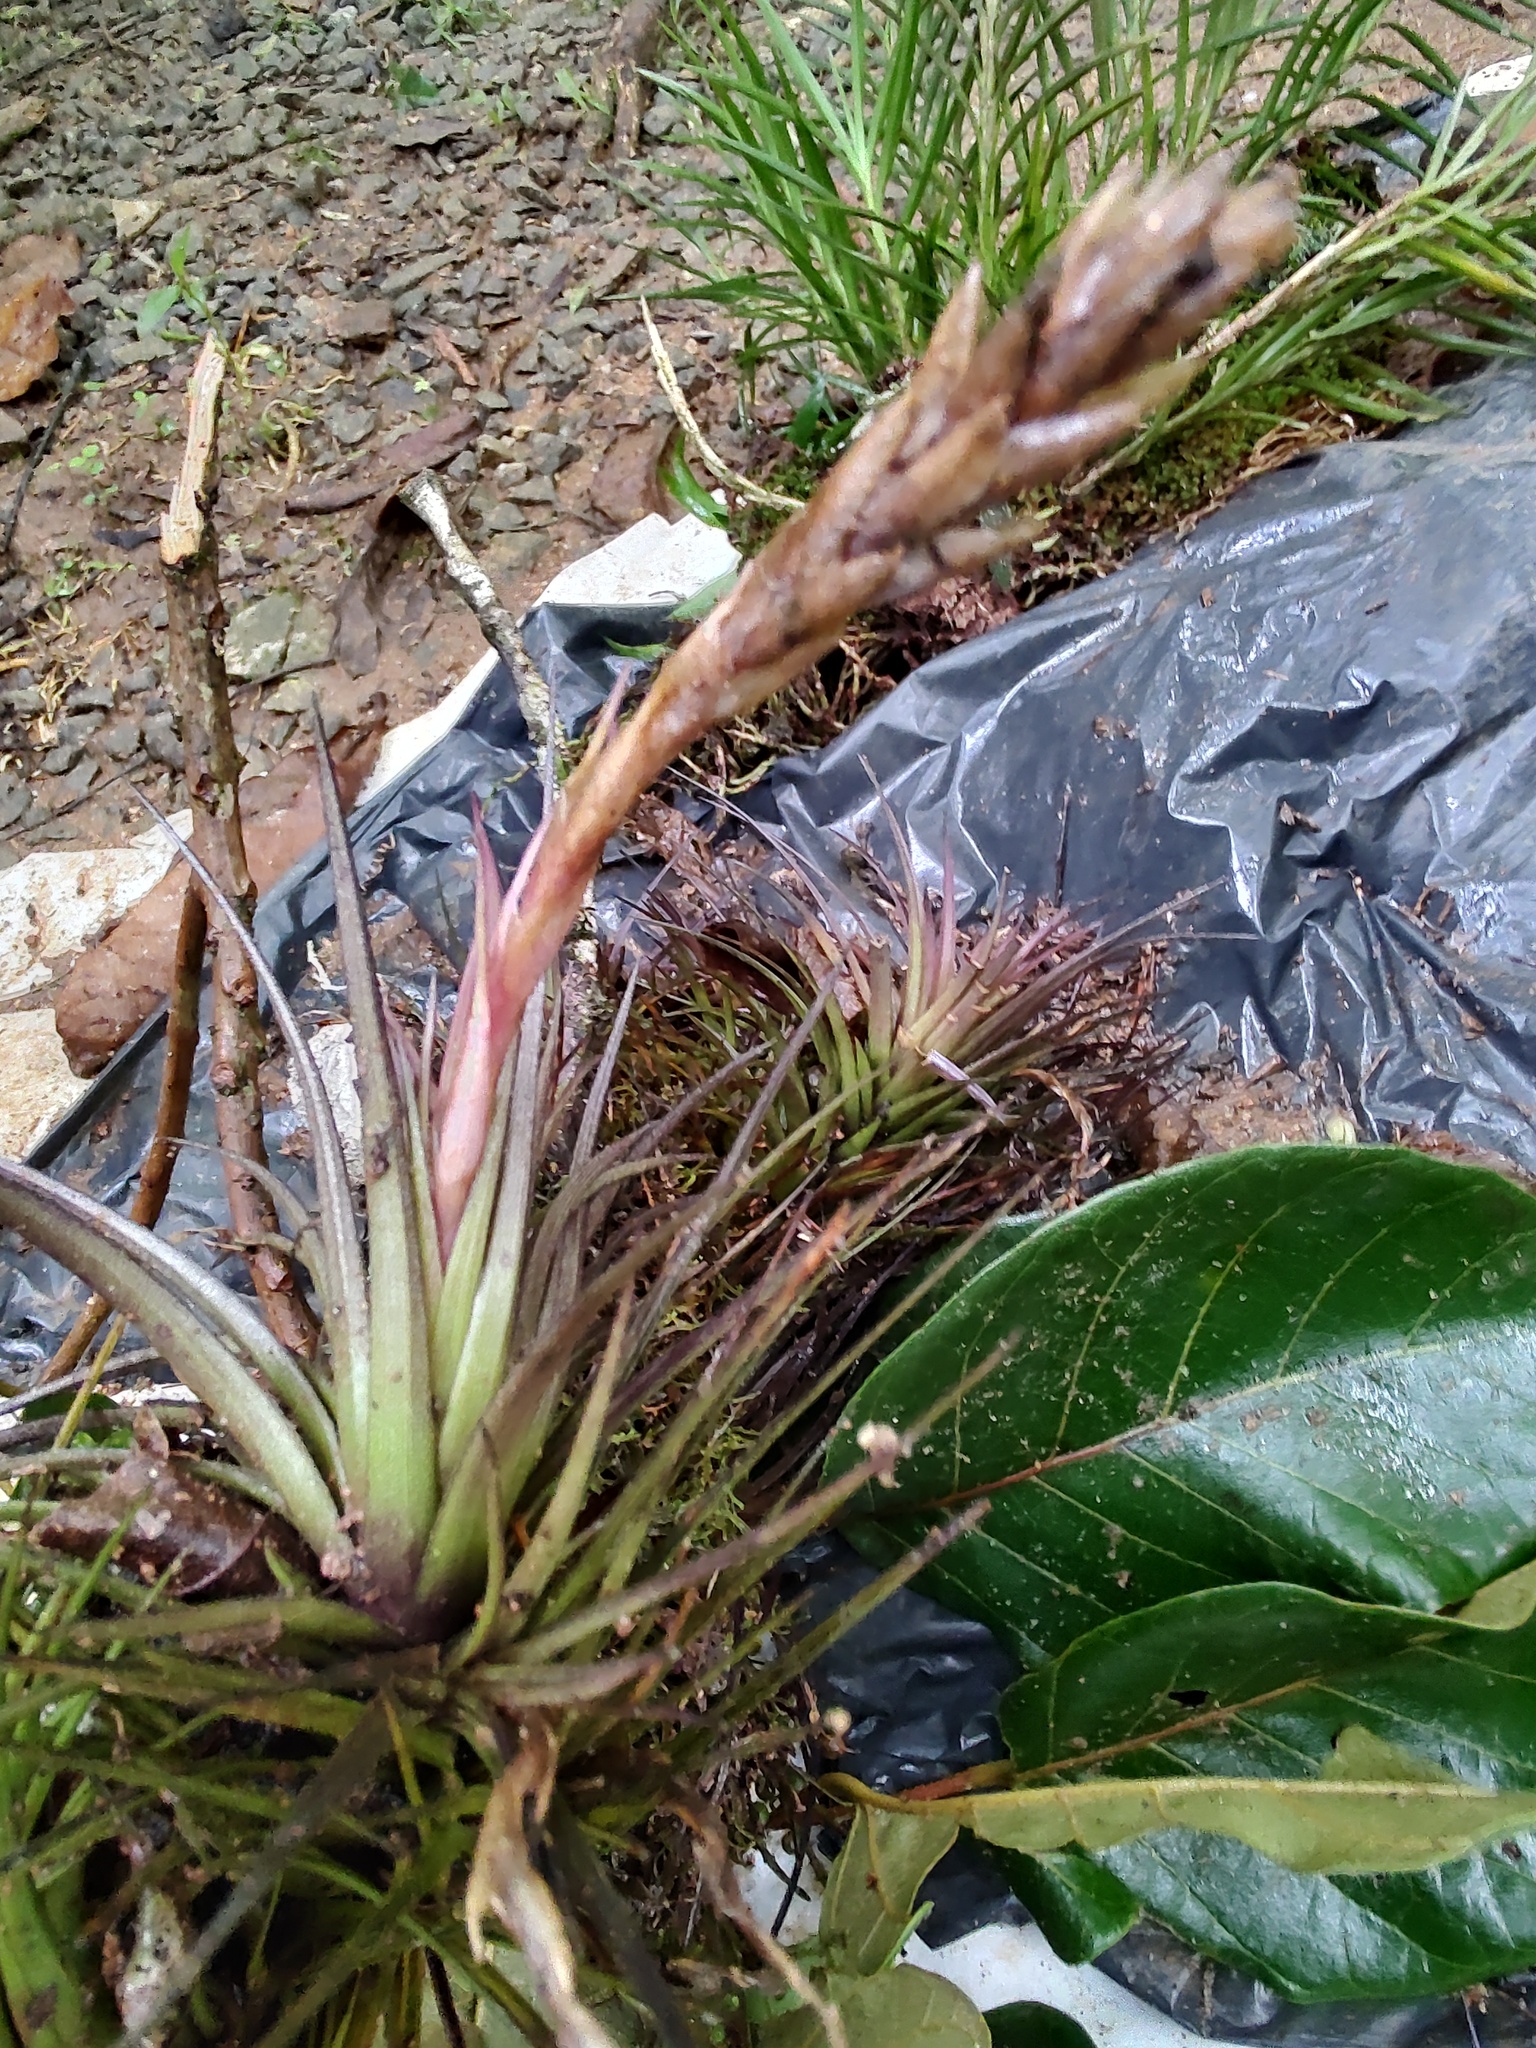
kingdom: Plantae
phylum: Tracheophyta
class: Liliopsida
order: Poales
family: Bromeliaceae
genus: Tillandsia
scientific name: Tillandsia aeranthos
